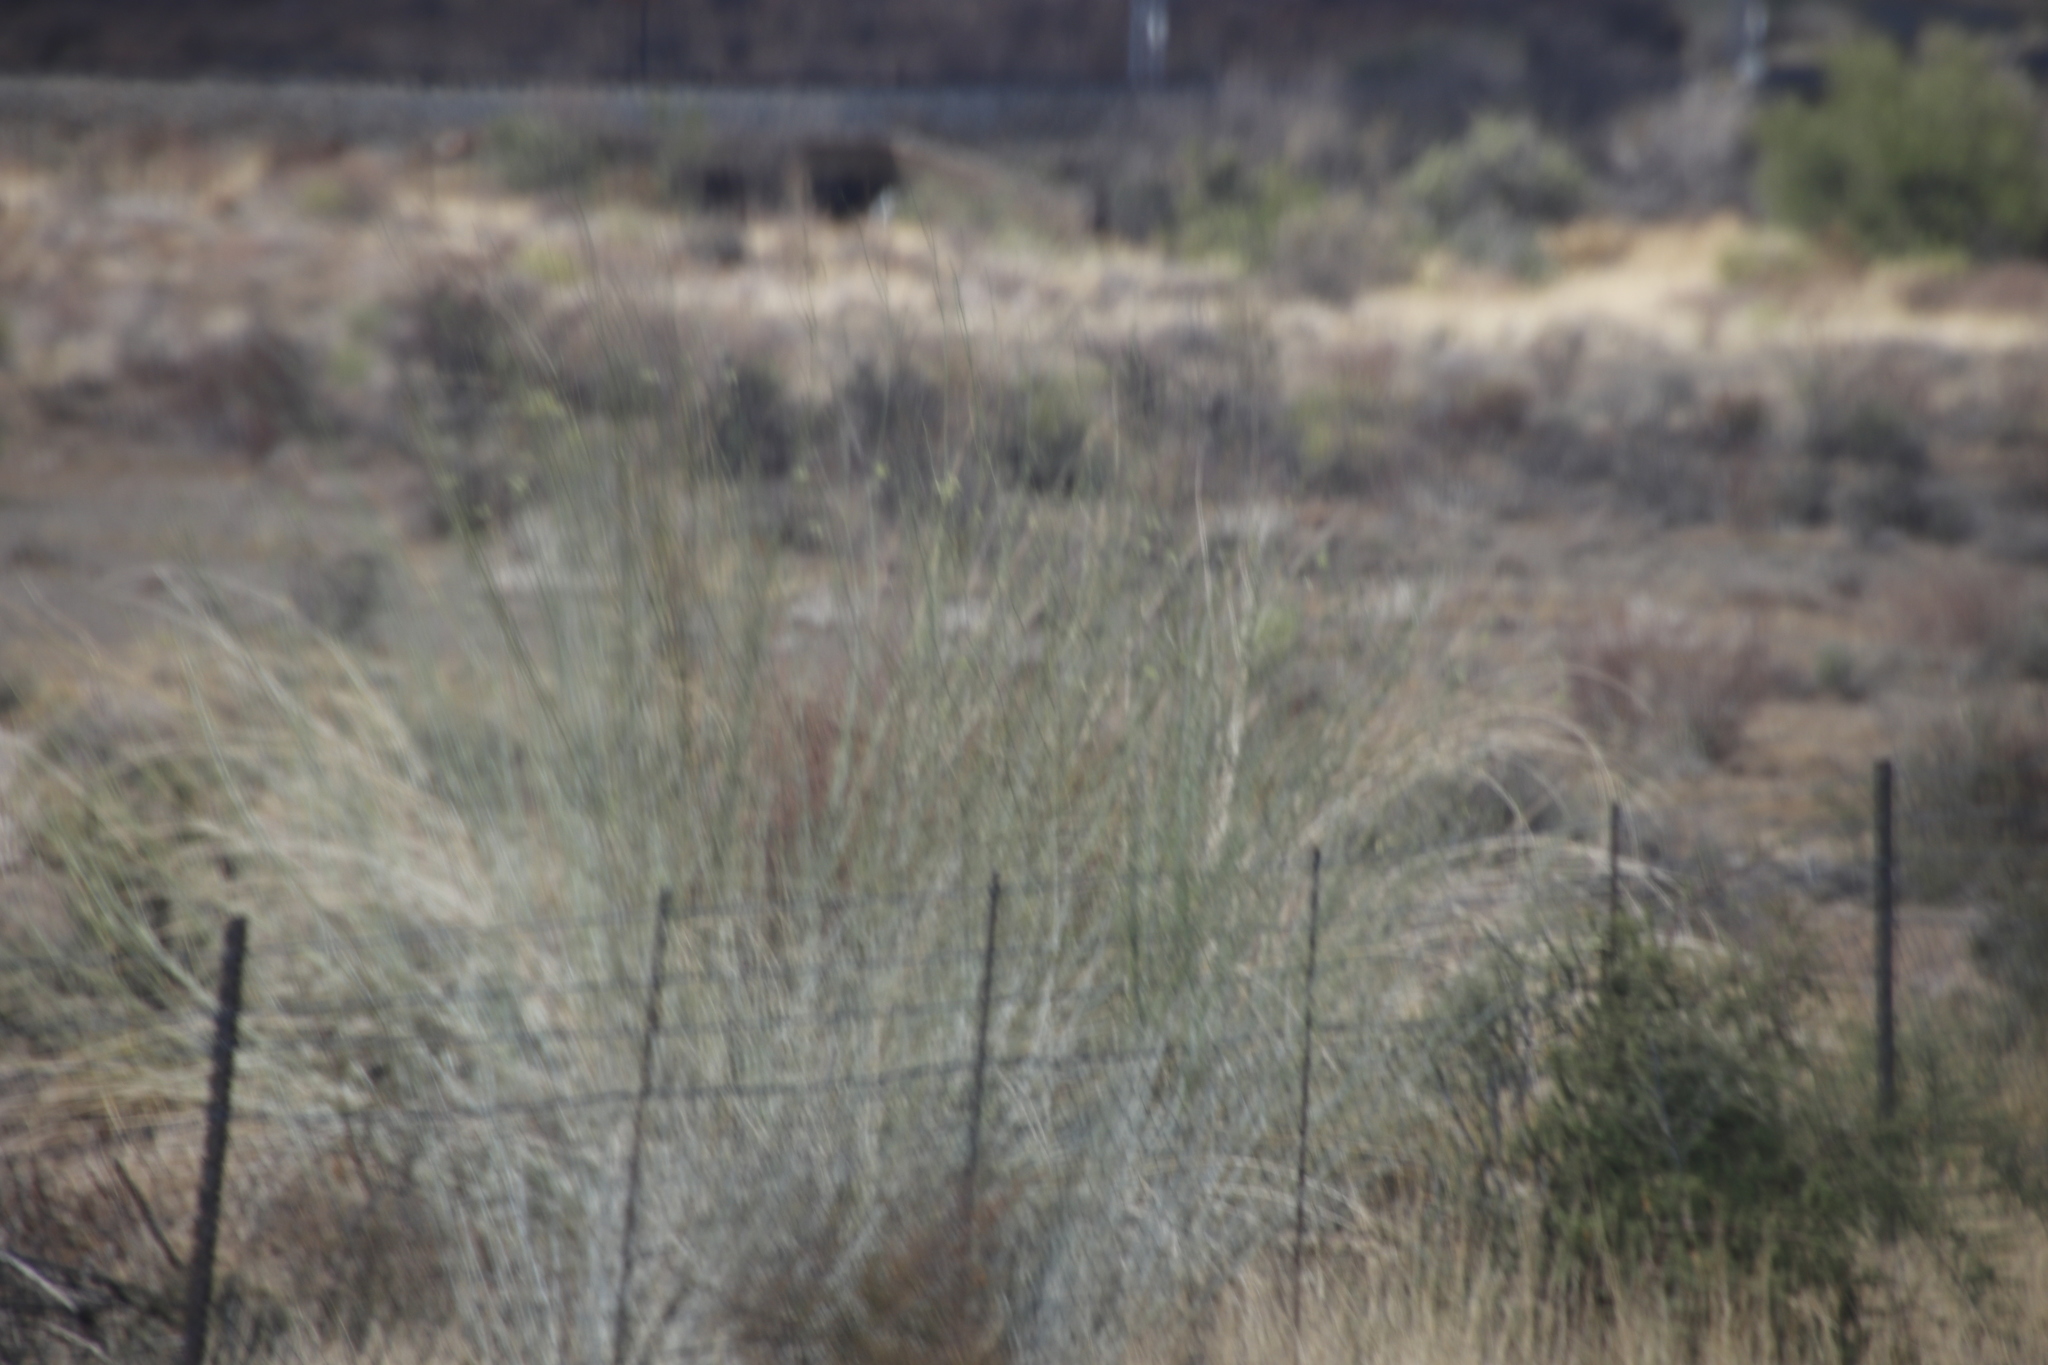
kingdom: Plantae
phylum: Tracheophyta
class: Magnoliopsida
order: Gentianales
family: Apocynaceae
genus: Gomphocarpus
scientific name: Gomphocarpus filiformis
